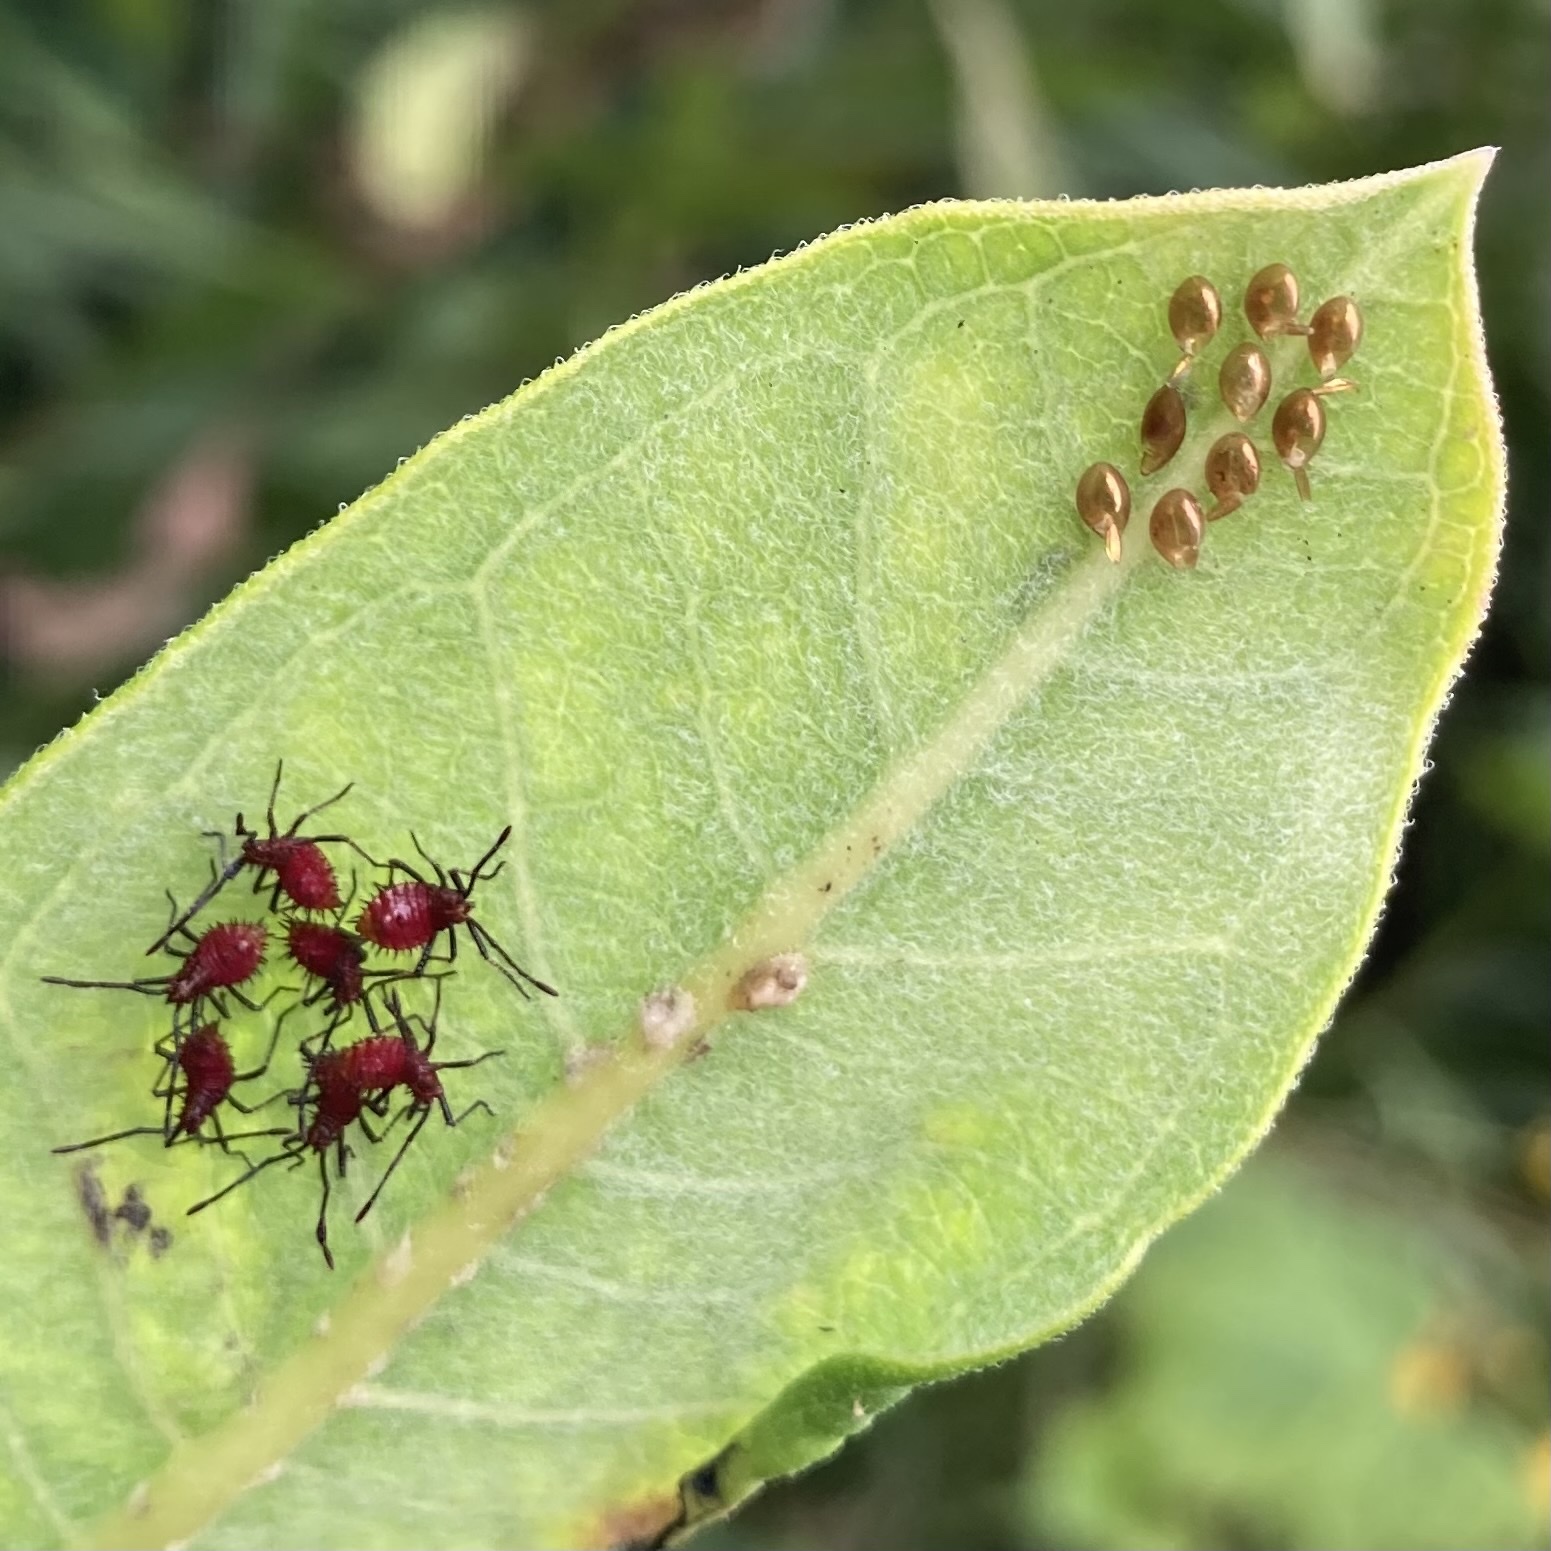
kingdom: Animalia
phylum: Arthropoda
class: Insecta
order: Hemiptera
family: Coreidae
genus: Euthochtha
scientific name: Euthochtha galeator
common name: Helmeted squash bug
